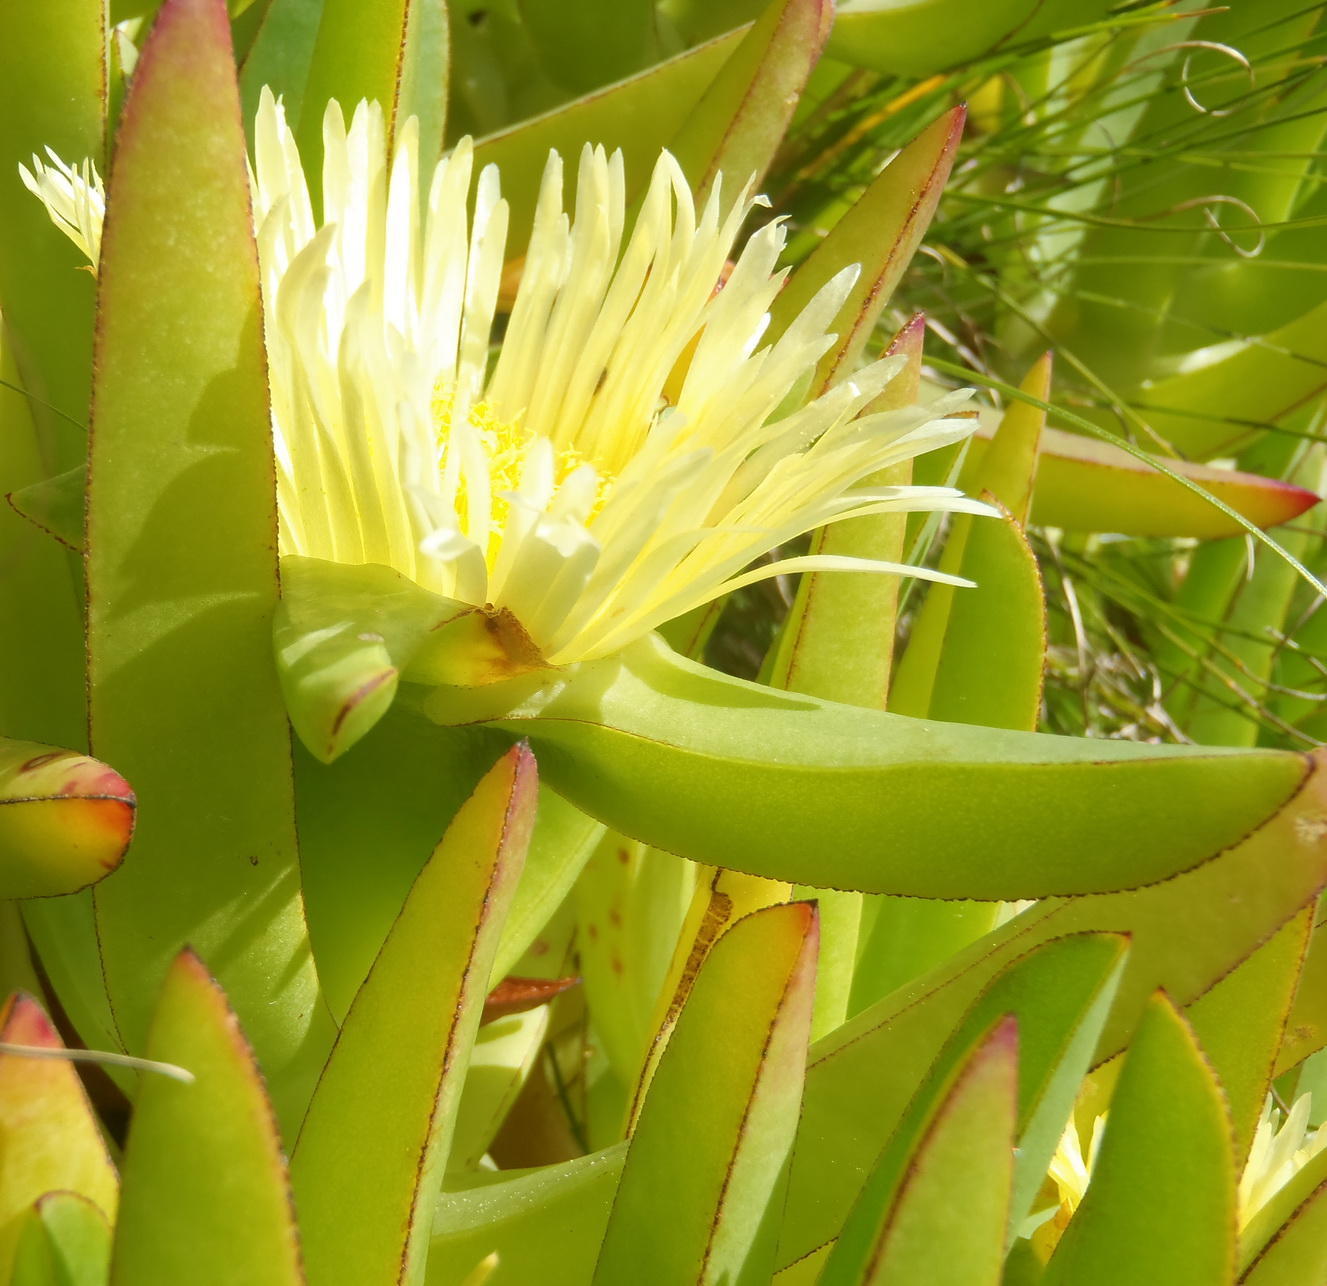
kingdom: Plantae
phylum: Tracheophyta
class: Magnoliopsida
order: Caryophyllales
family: Aizoaceae
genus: Carpobrotus
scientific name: Carpobrotus edulis
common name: Hottentot-fig
